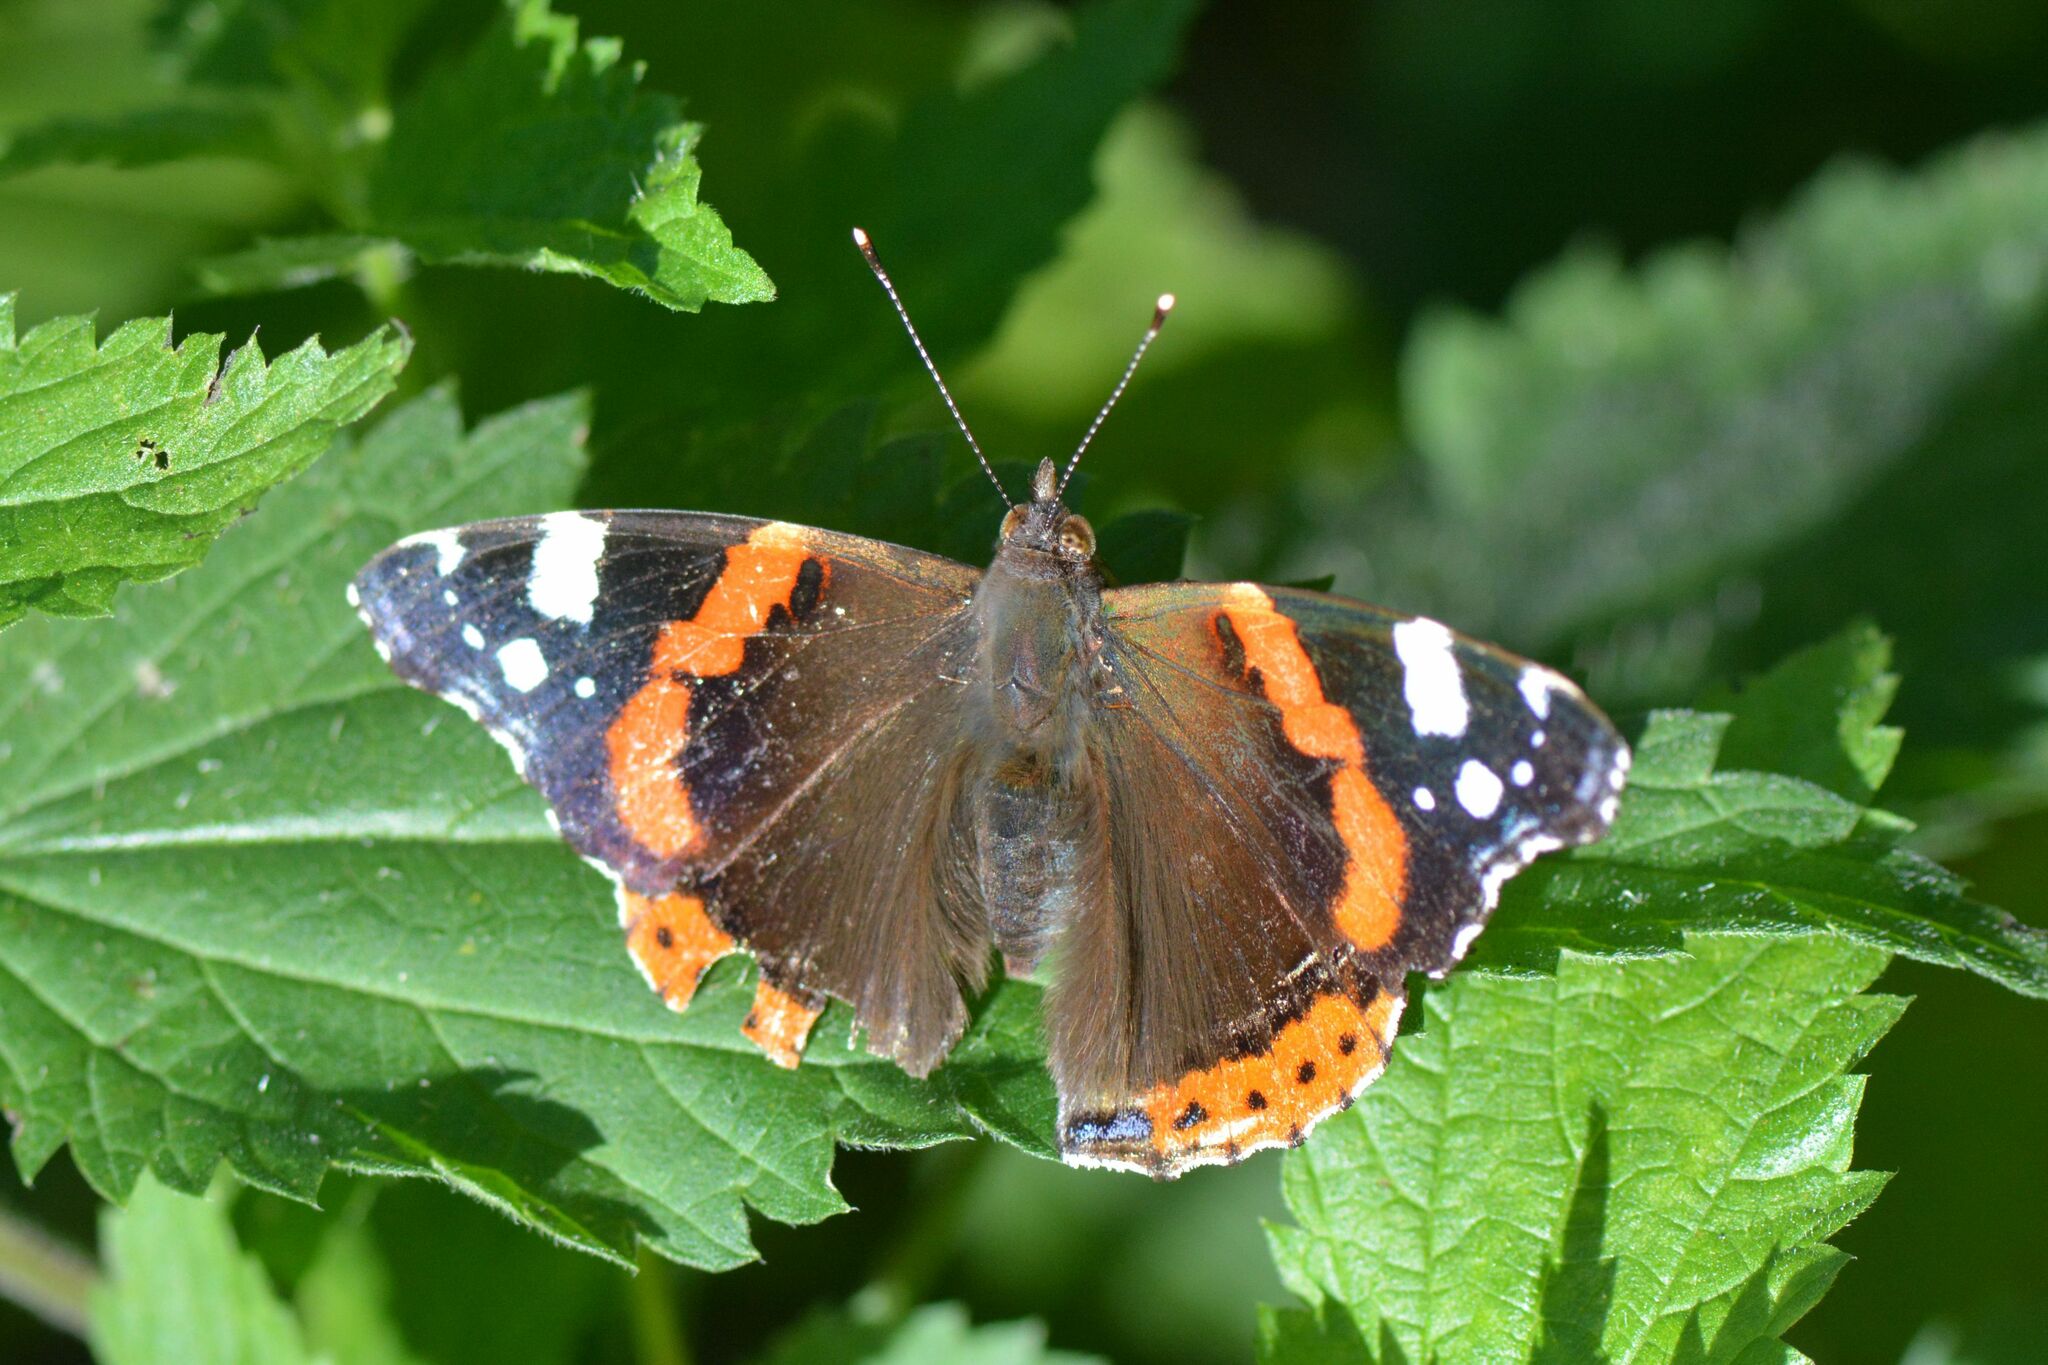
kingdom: Animalia
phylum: Arthropoda
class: Insecta
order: Lepidoptera
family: Nymphalidae
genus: Vanessa
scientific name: Vanessa atalanta
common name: Red admiral
